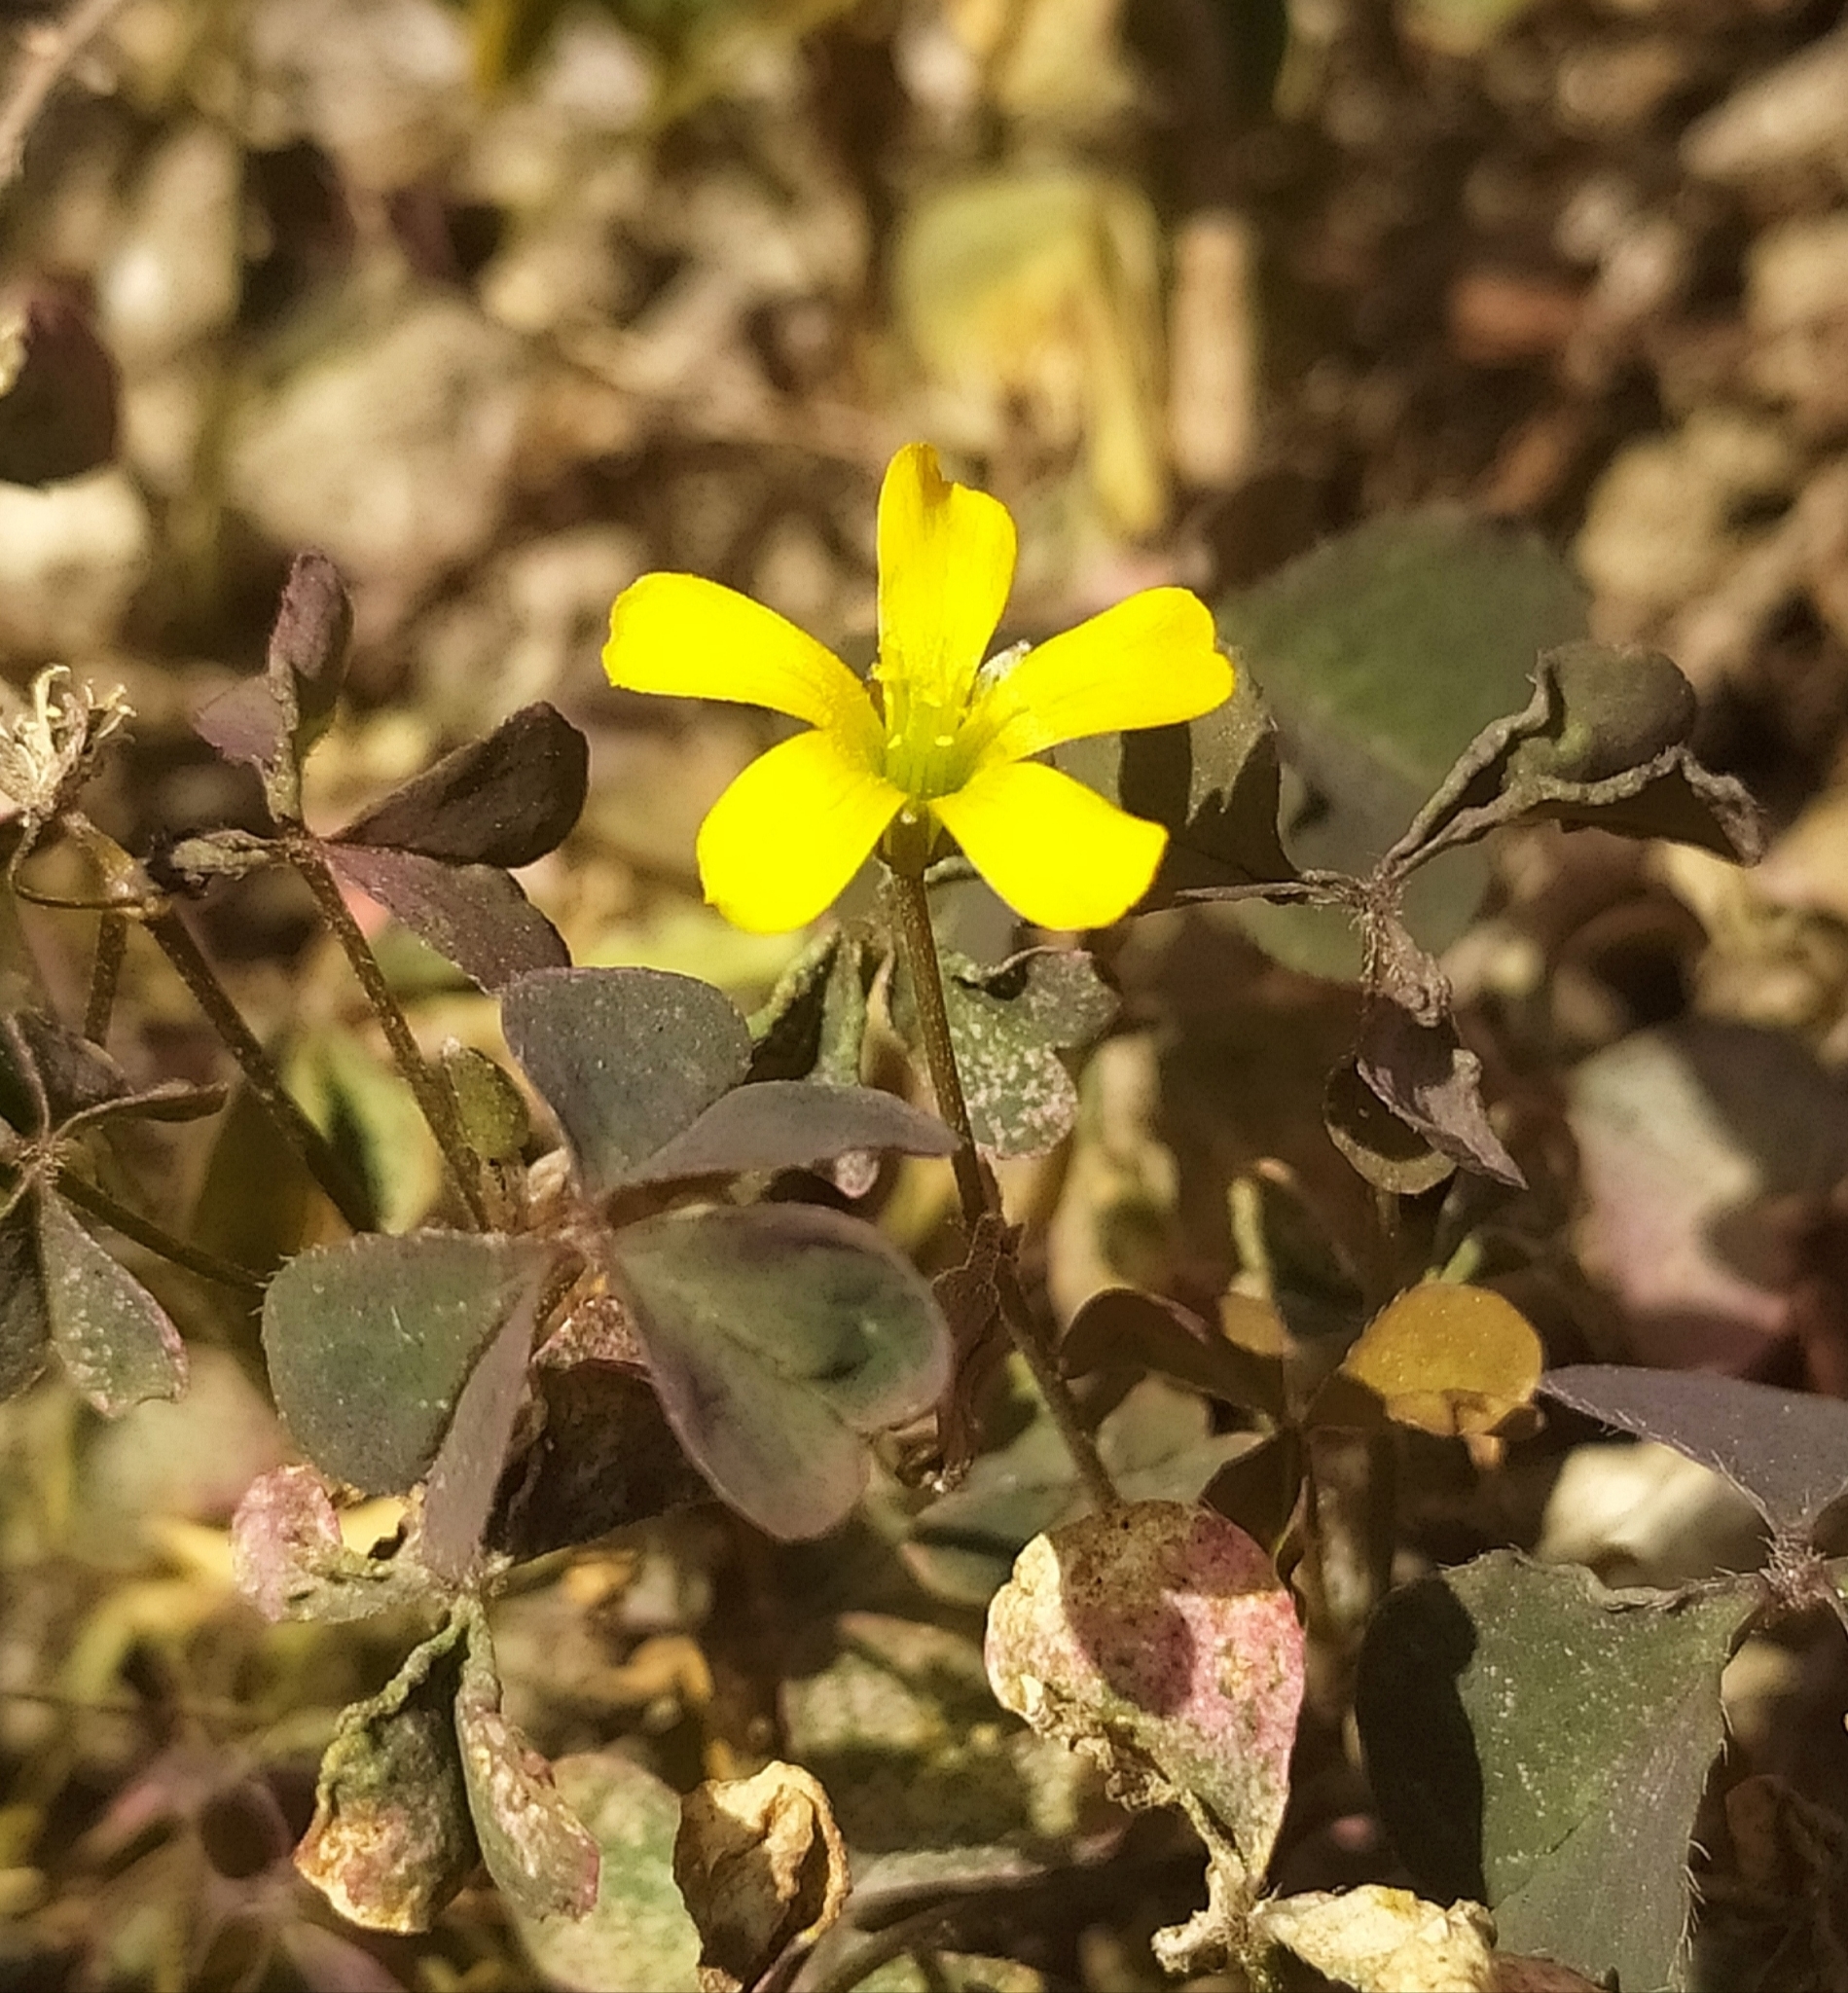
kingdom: Plantae
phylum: Tracheophyta
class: Magnoliopsida
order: Oxalidales
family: Oxalidaceae
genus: Oxalis
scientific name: Oxalis corniculata
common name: Procumbent yellow-sorrel
